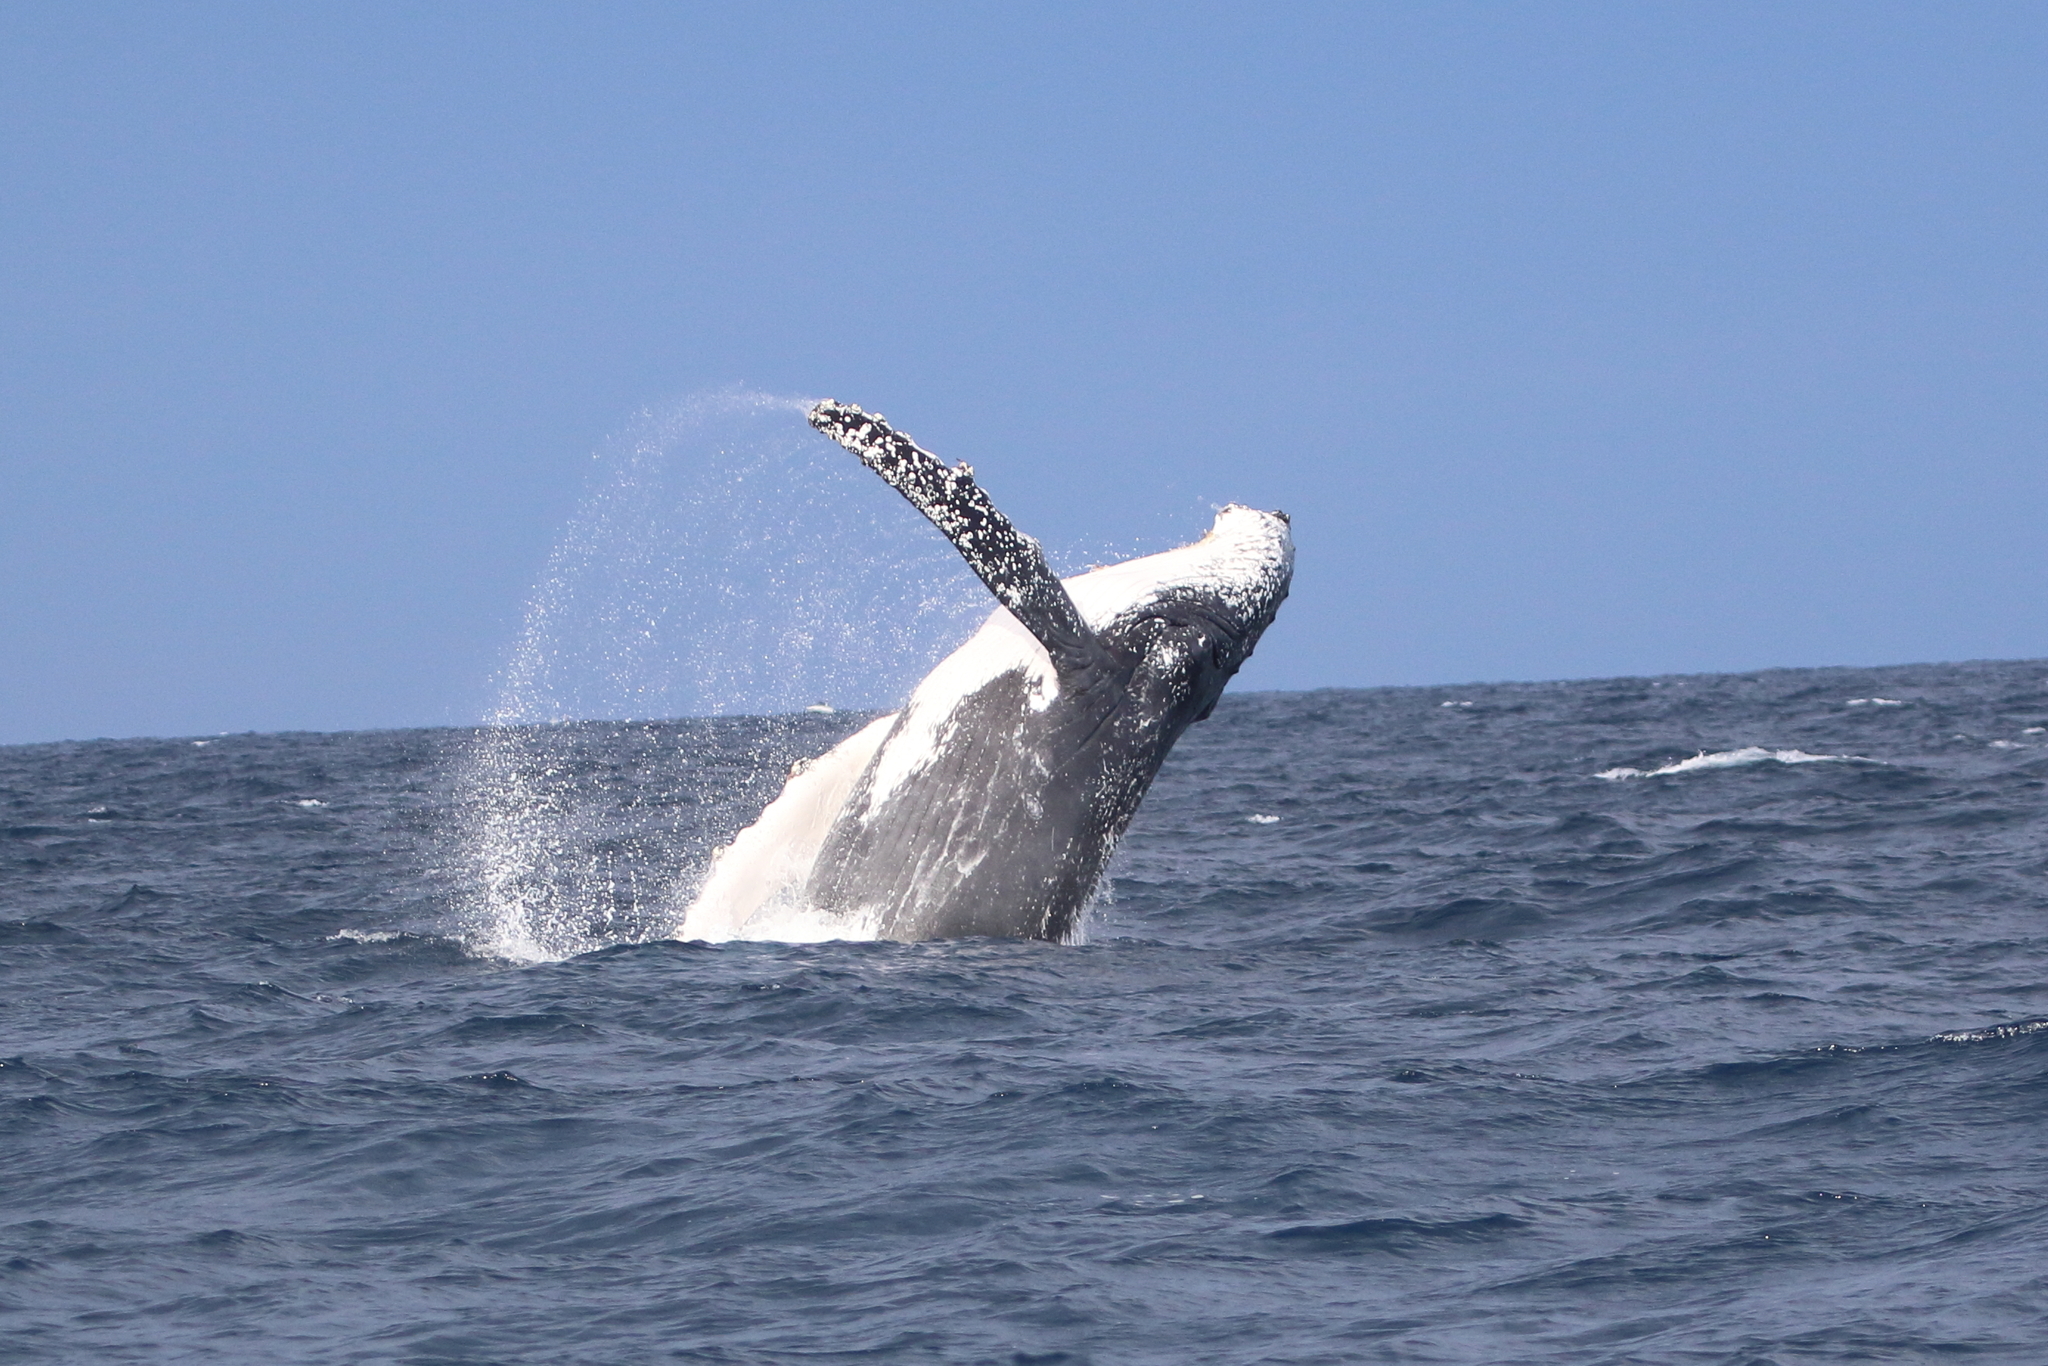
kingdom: Animalia
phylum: Chordata
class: Mammalia
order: Cetacea
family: Balaenopteridae
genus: Megaptera
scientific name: Megaptera novaeangliae
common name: Humpback whale
